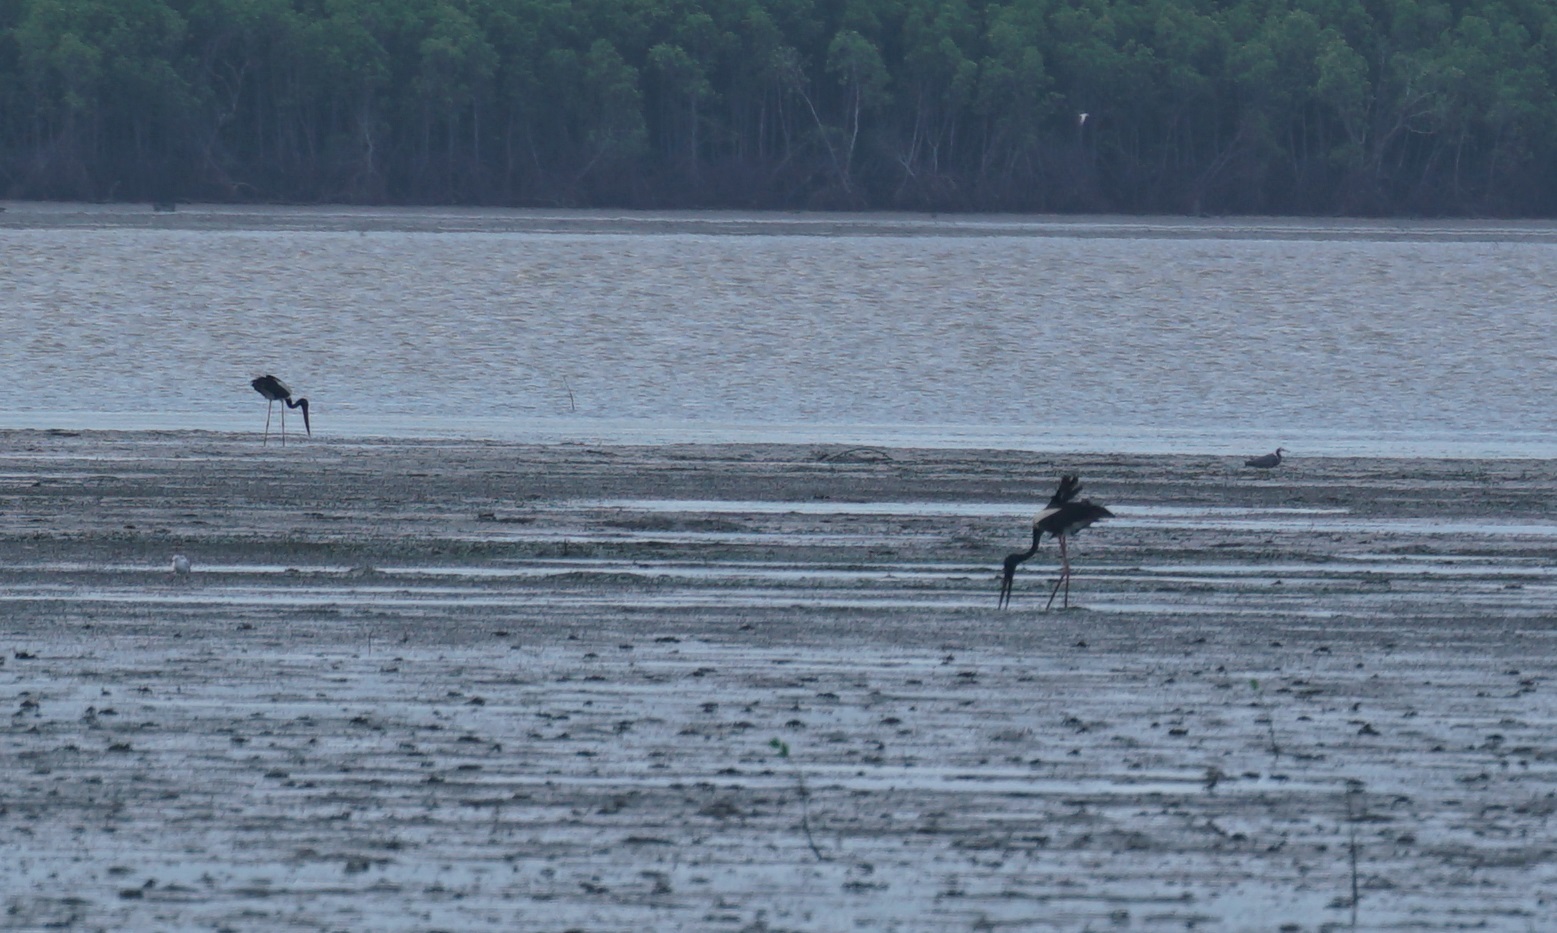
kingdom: Animalia
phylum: Chordata
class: Aves
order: Ciconiiformes
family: Ciconiidae
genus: Ephippiorhynchus
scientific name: Ephippiorhynchus asiaticus
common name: Black-necked stork
